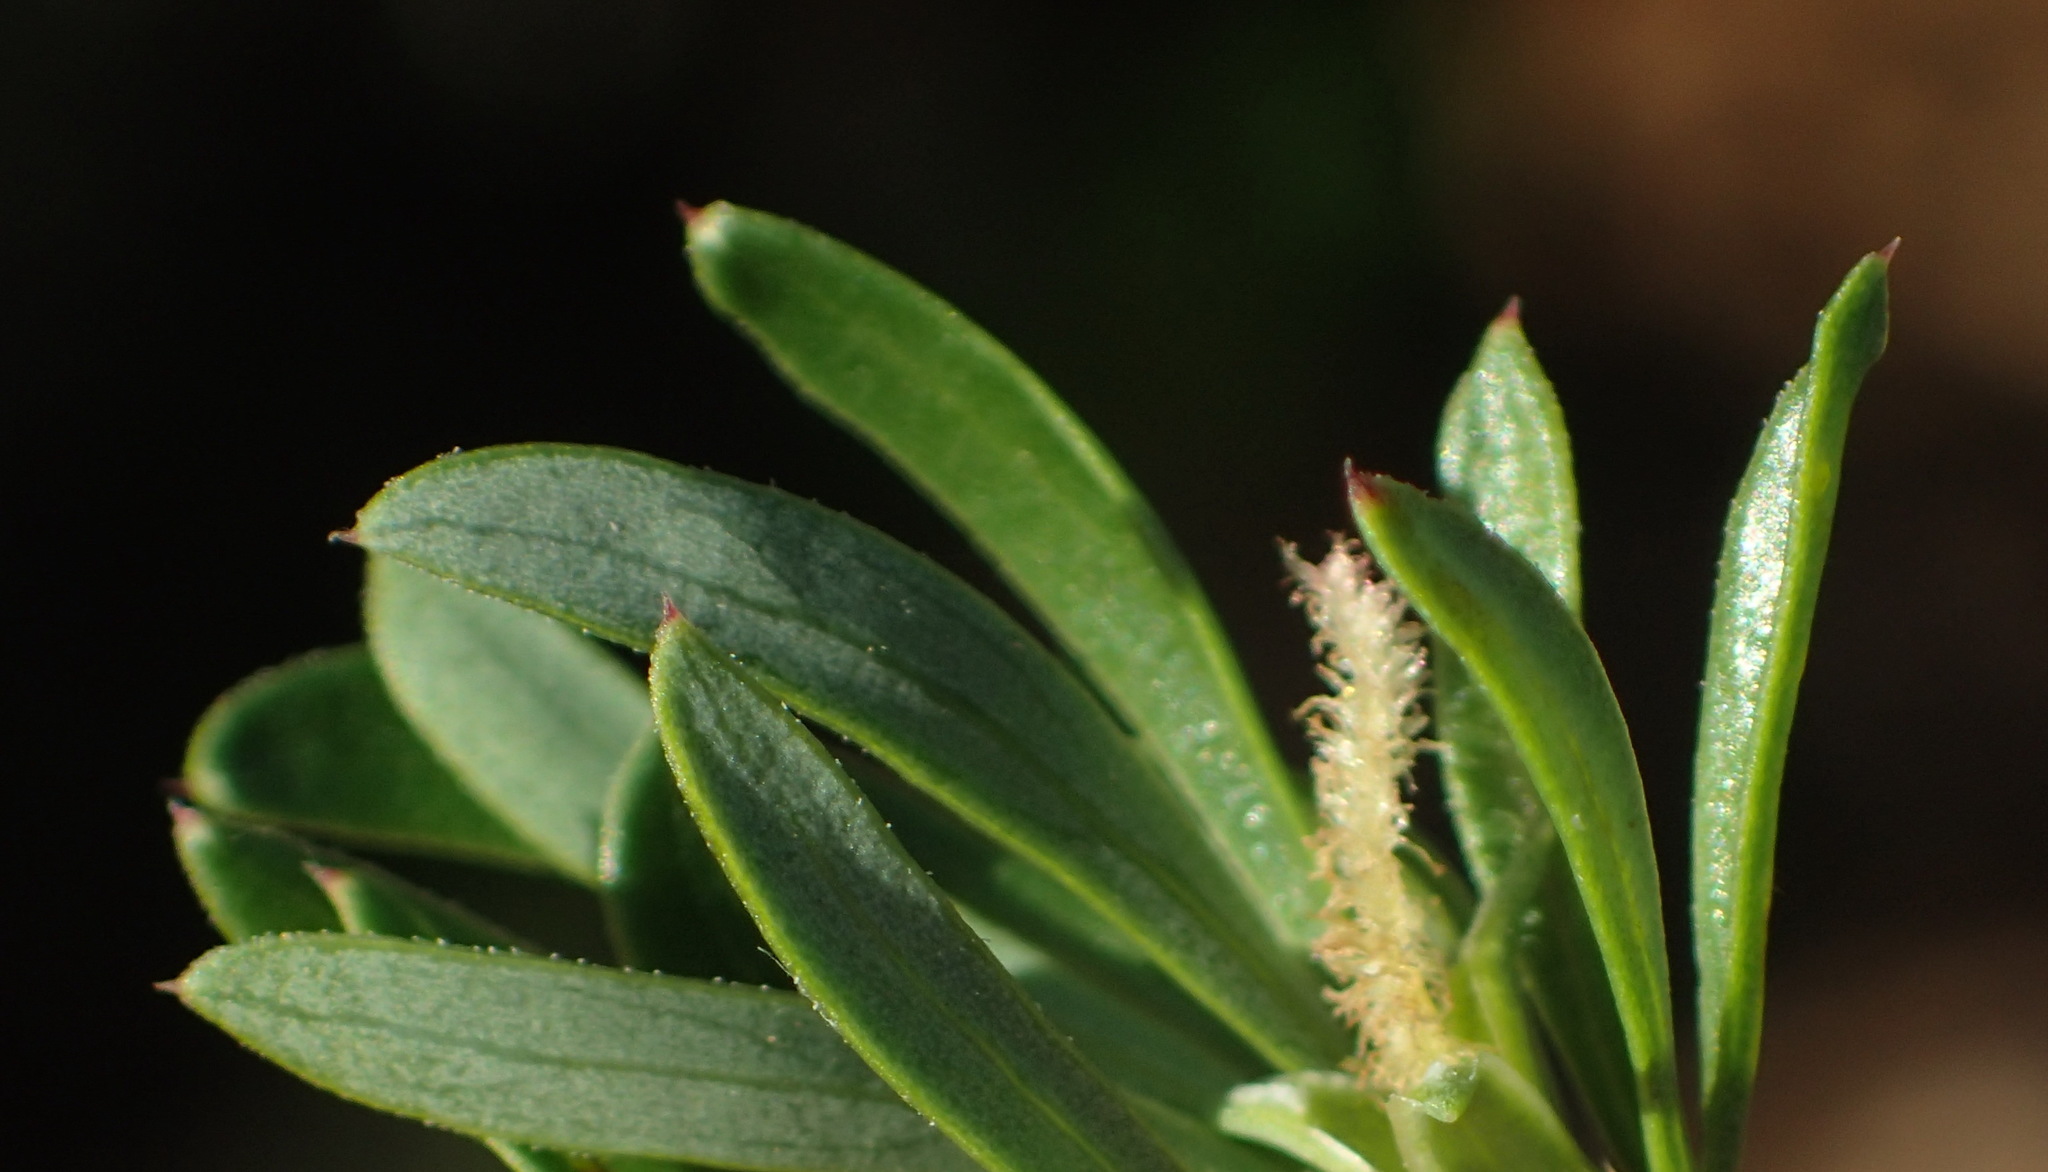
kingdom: Plantae
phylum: Tracheophyta
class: Magnoliopsida
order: Rosales
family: Rosaceae
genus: Cliffortia
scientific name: Cliffortia drepanoides
